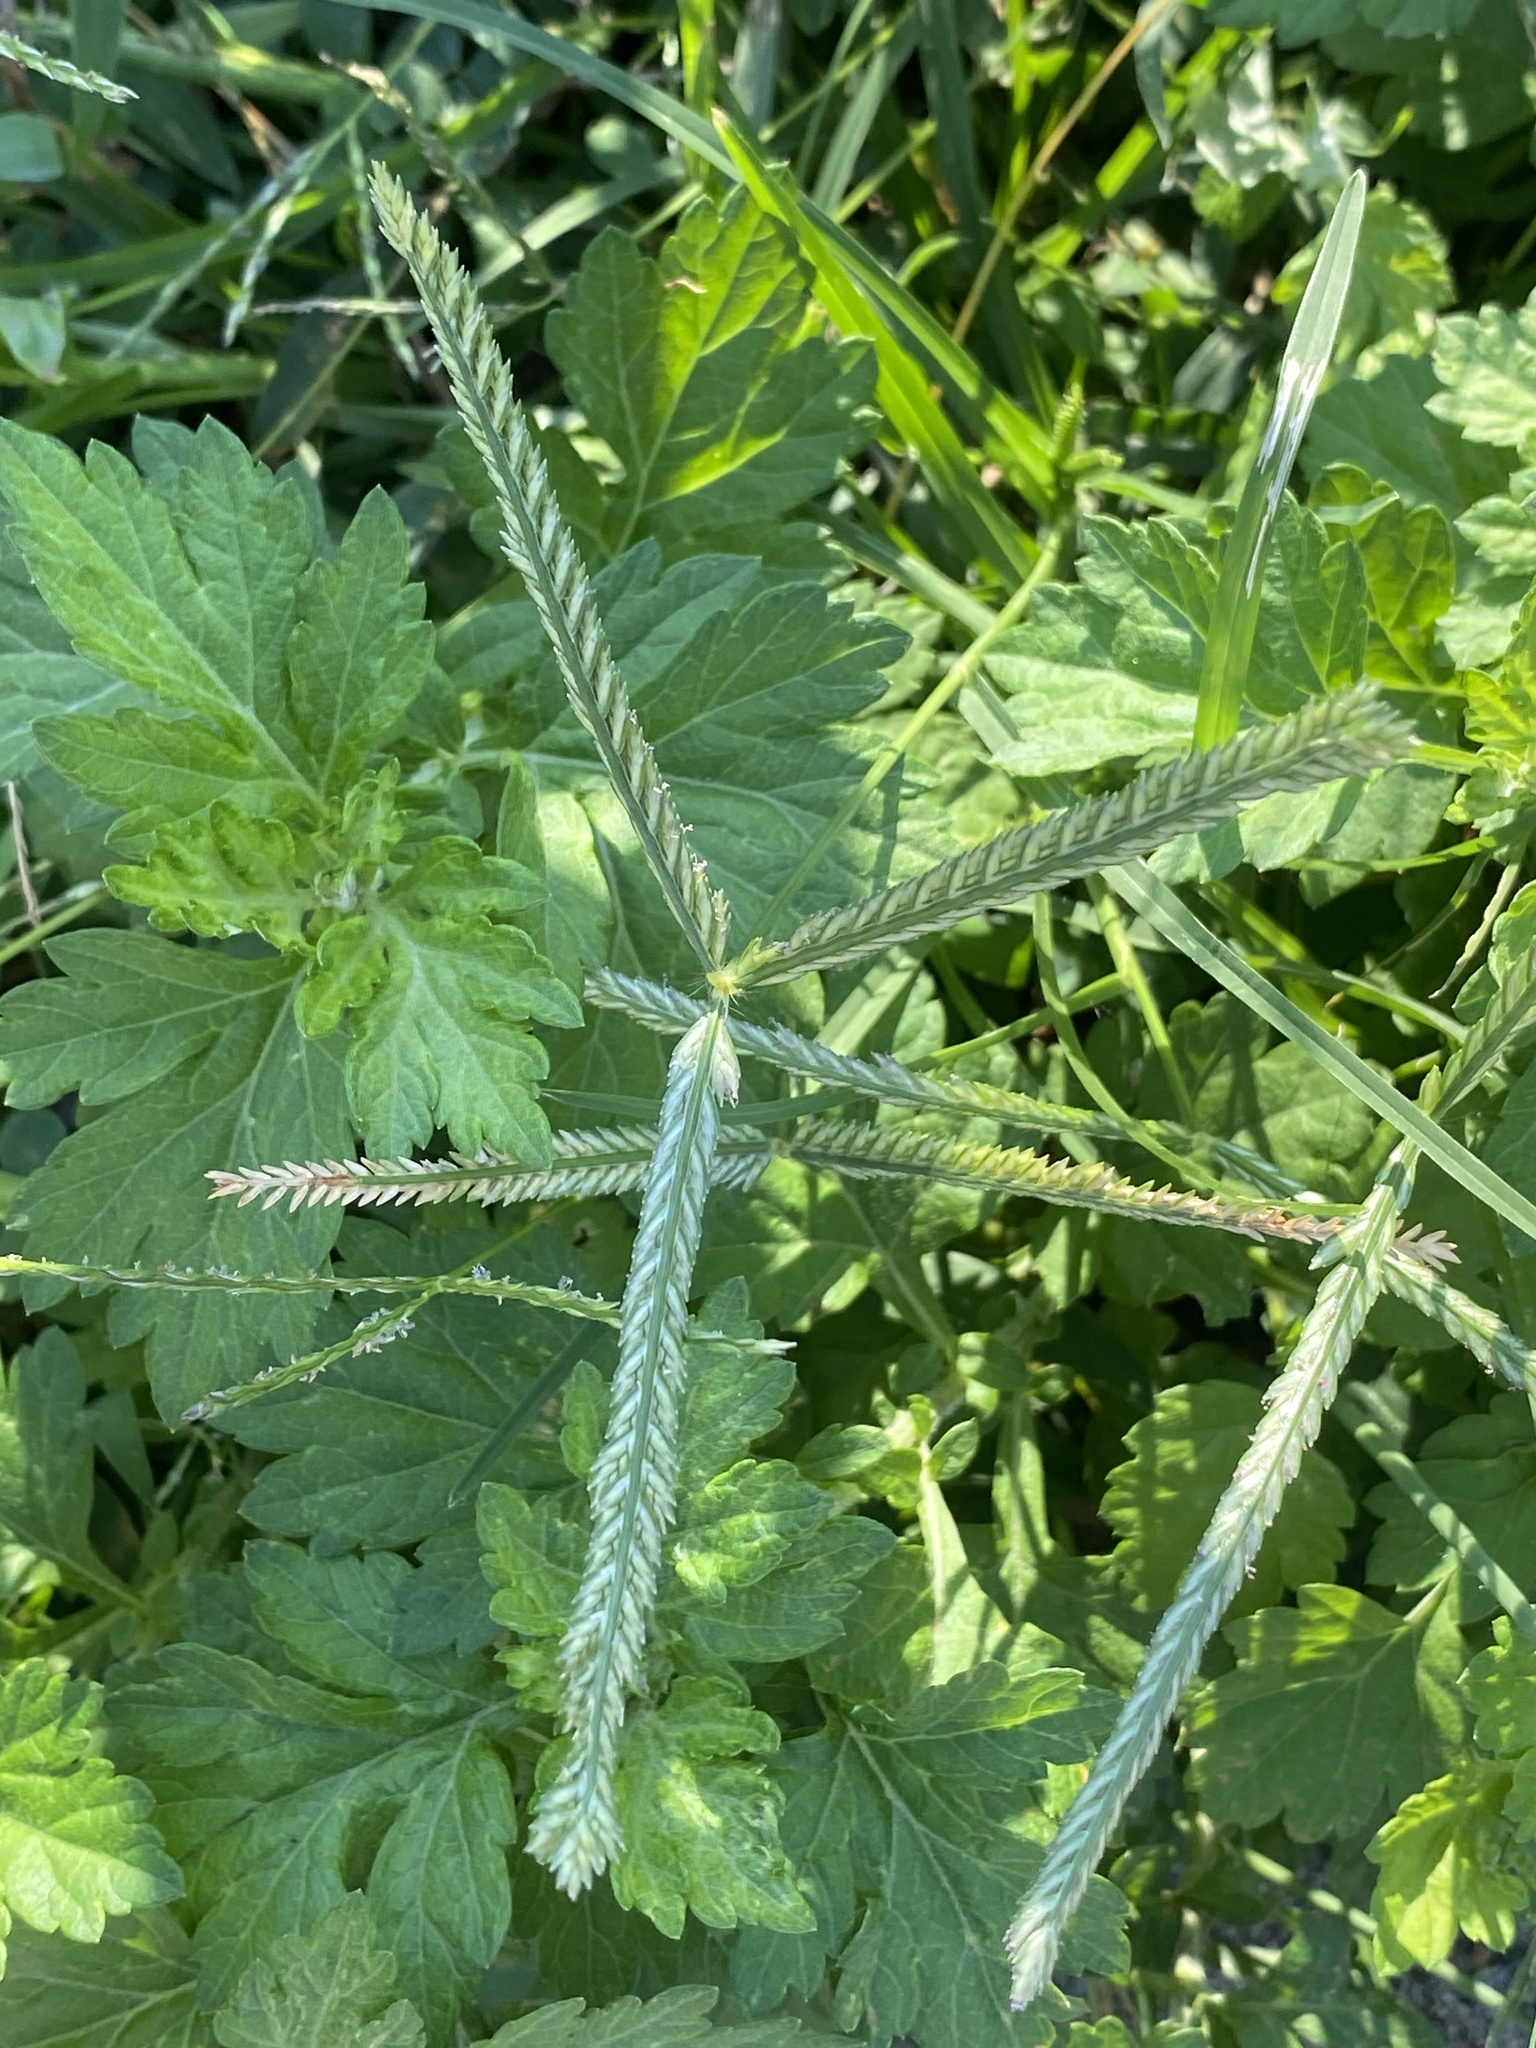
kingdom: Plantae
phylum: Tracheophyta
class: Liliopsida
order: Poales
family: Poaceae
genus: Eleusine
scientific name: Eleusine indica
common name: Yard-grass
